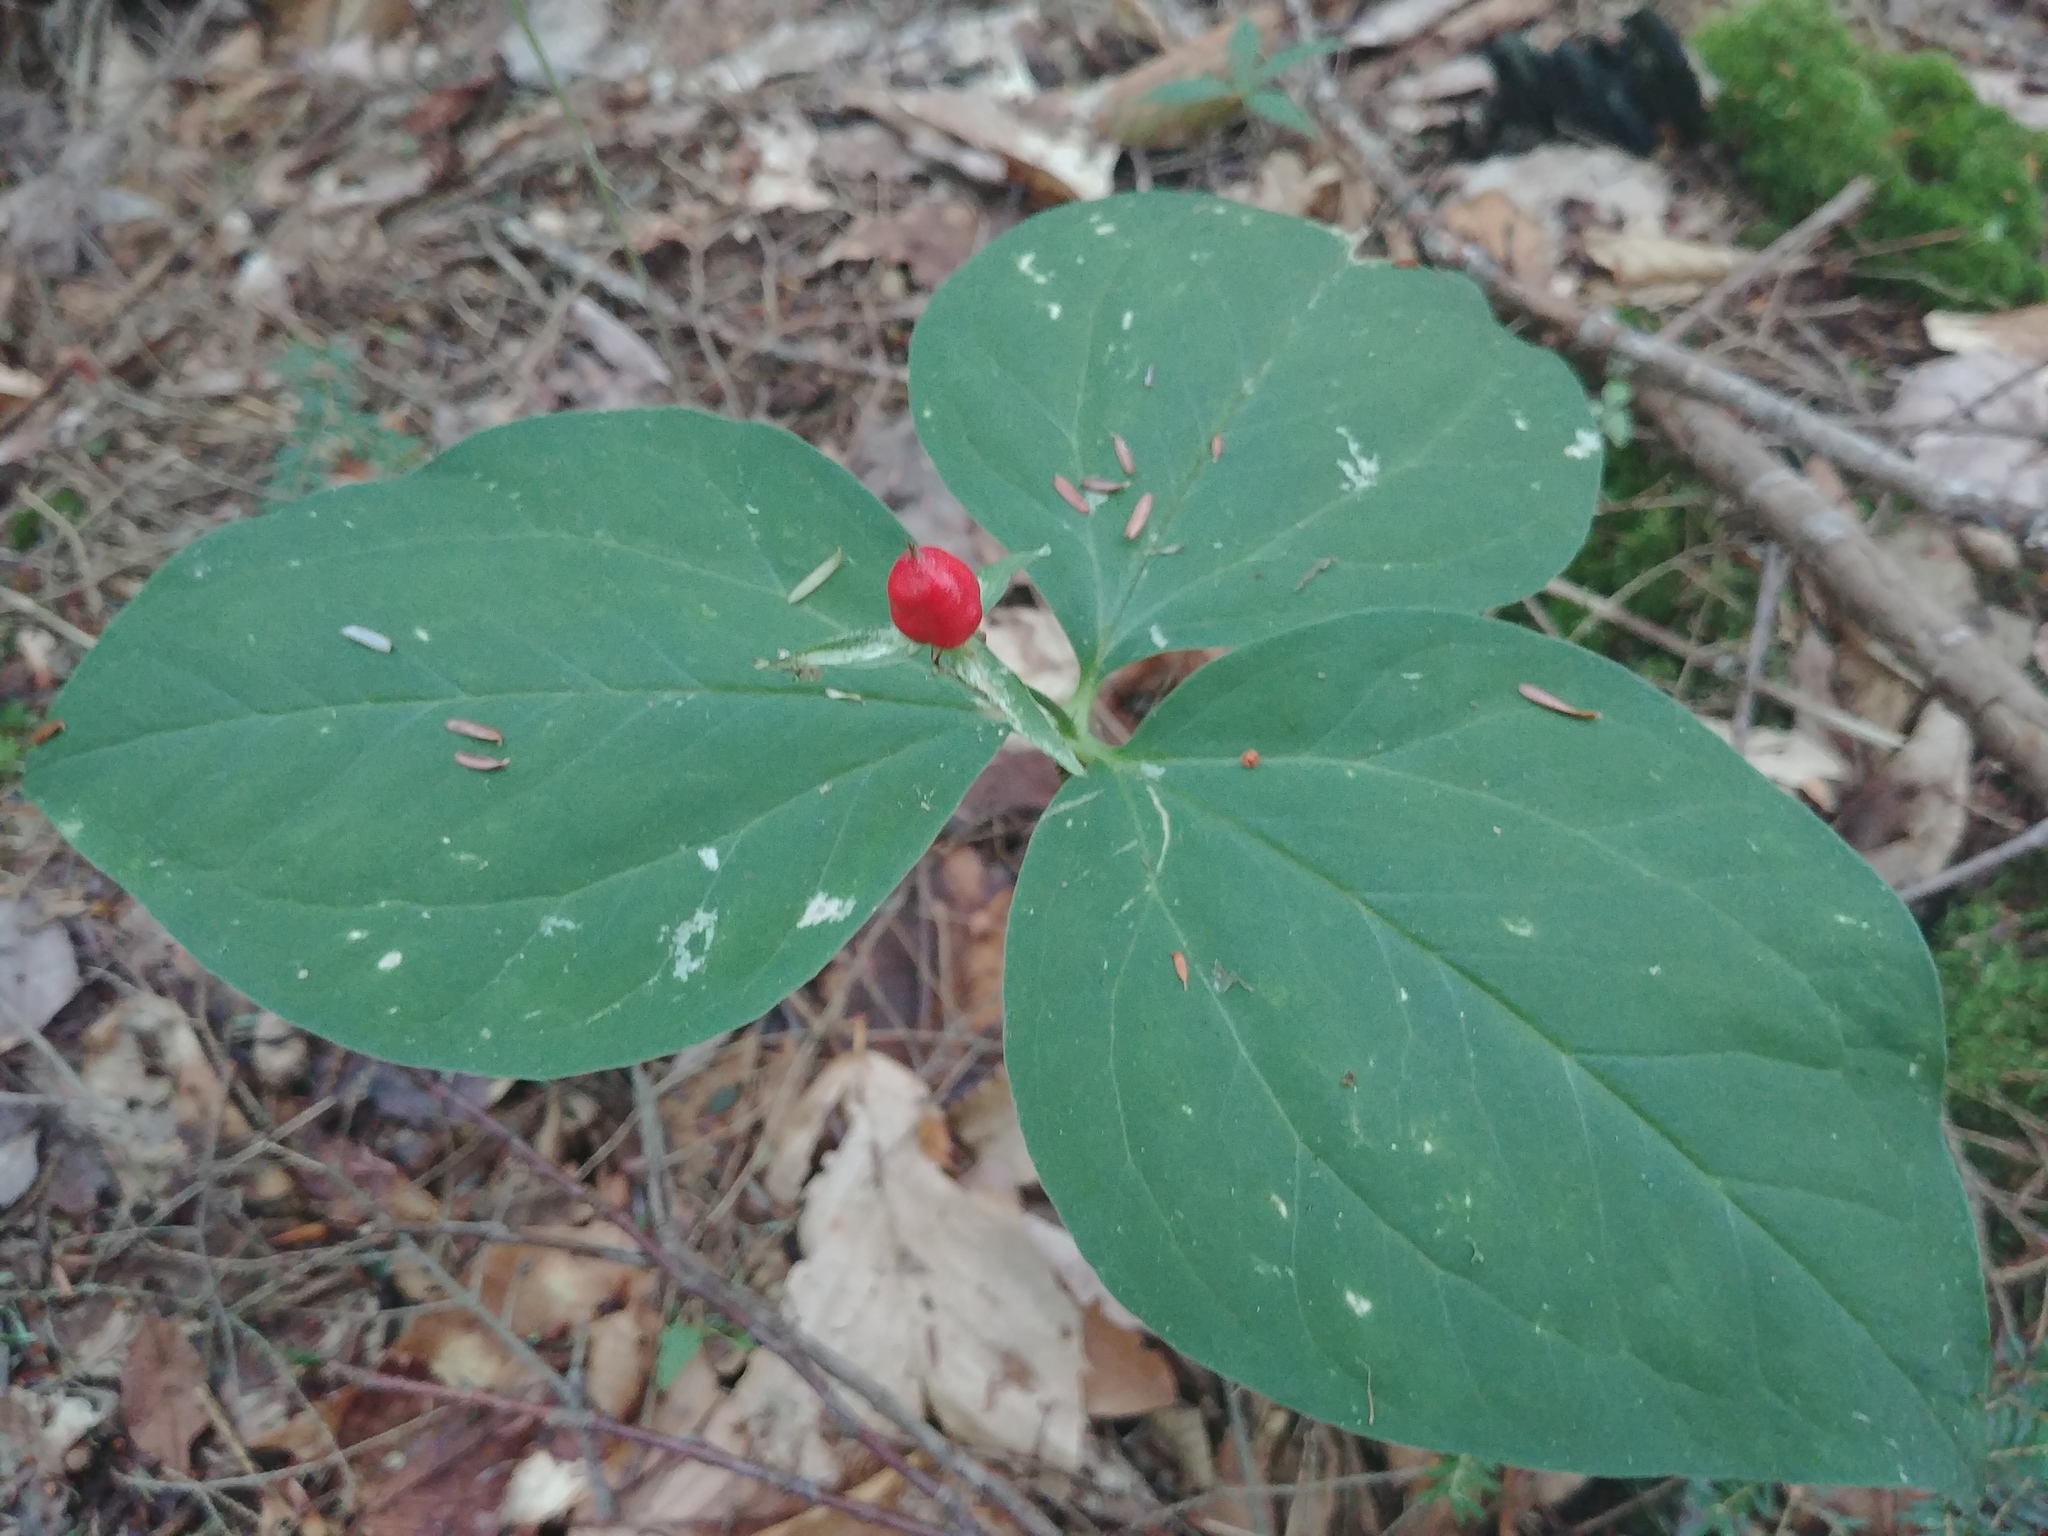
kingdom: Plantae
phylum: Tracheophyta
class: Liliopsida
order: Liliales
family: Melanthiaceae
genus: Trillium
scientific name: Trillium undulatum
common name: Paint trillium
